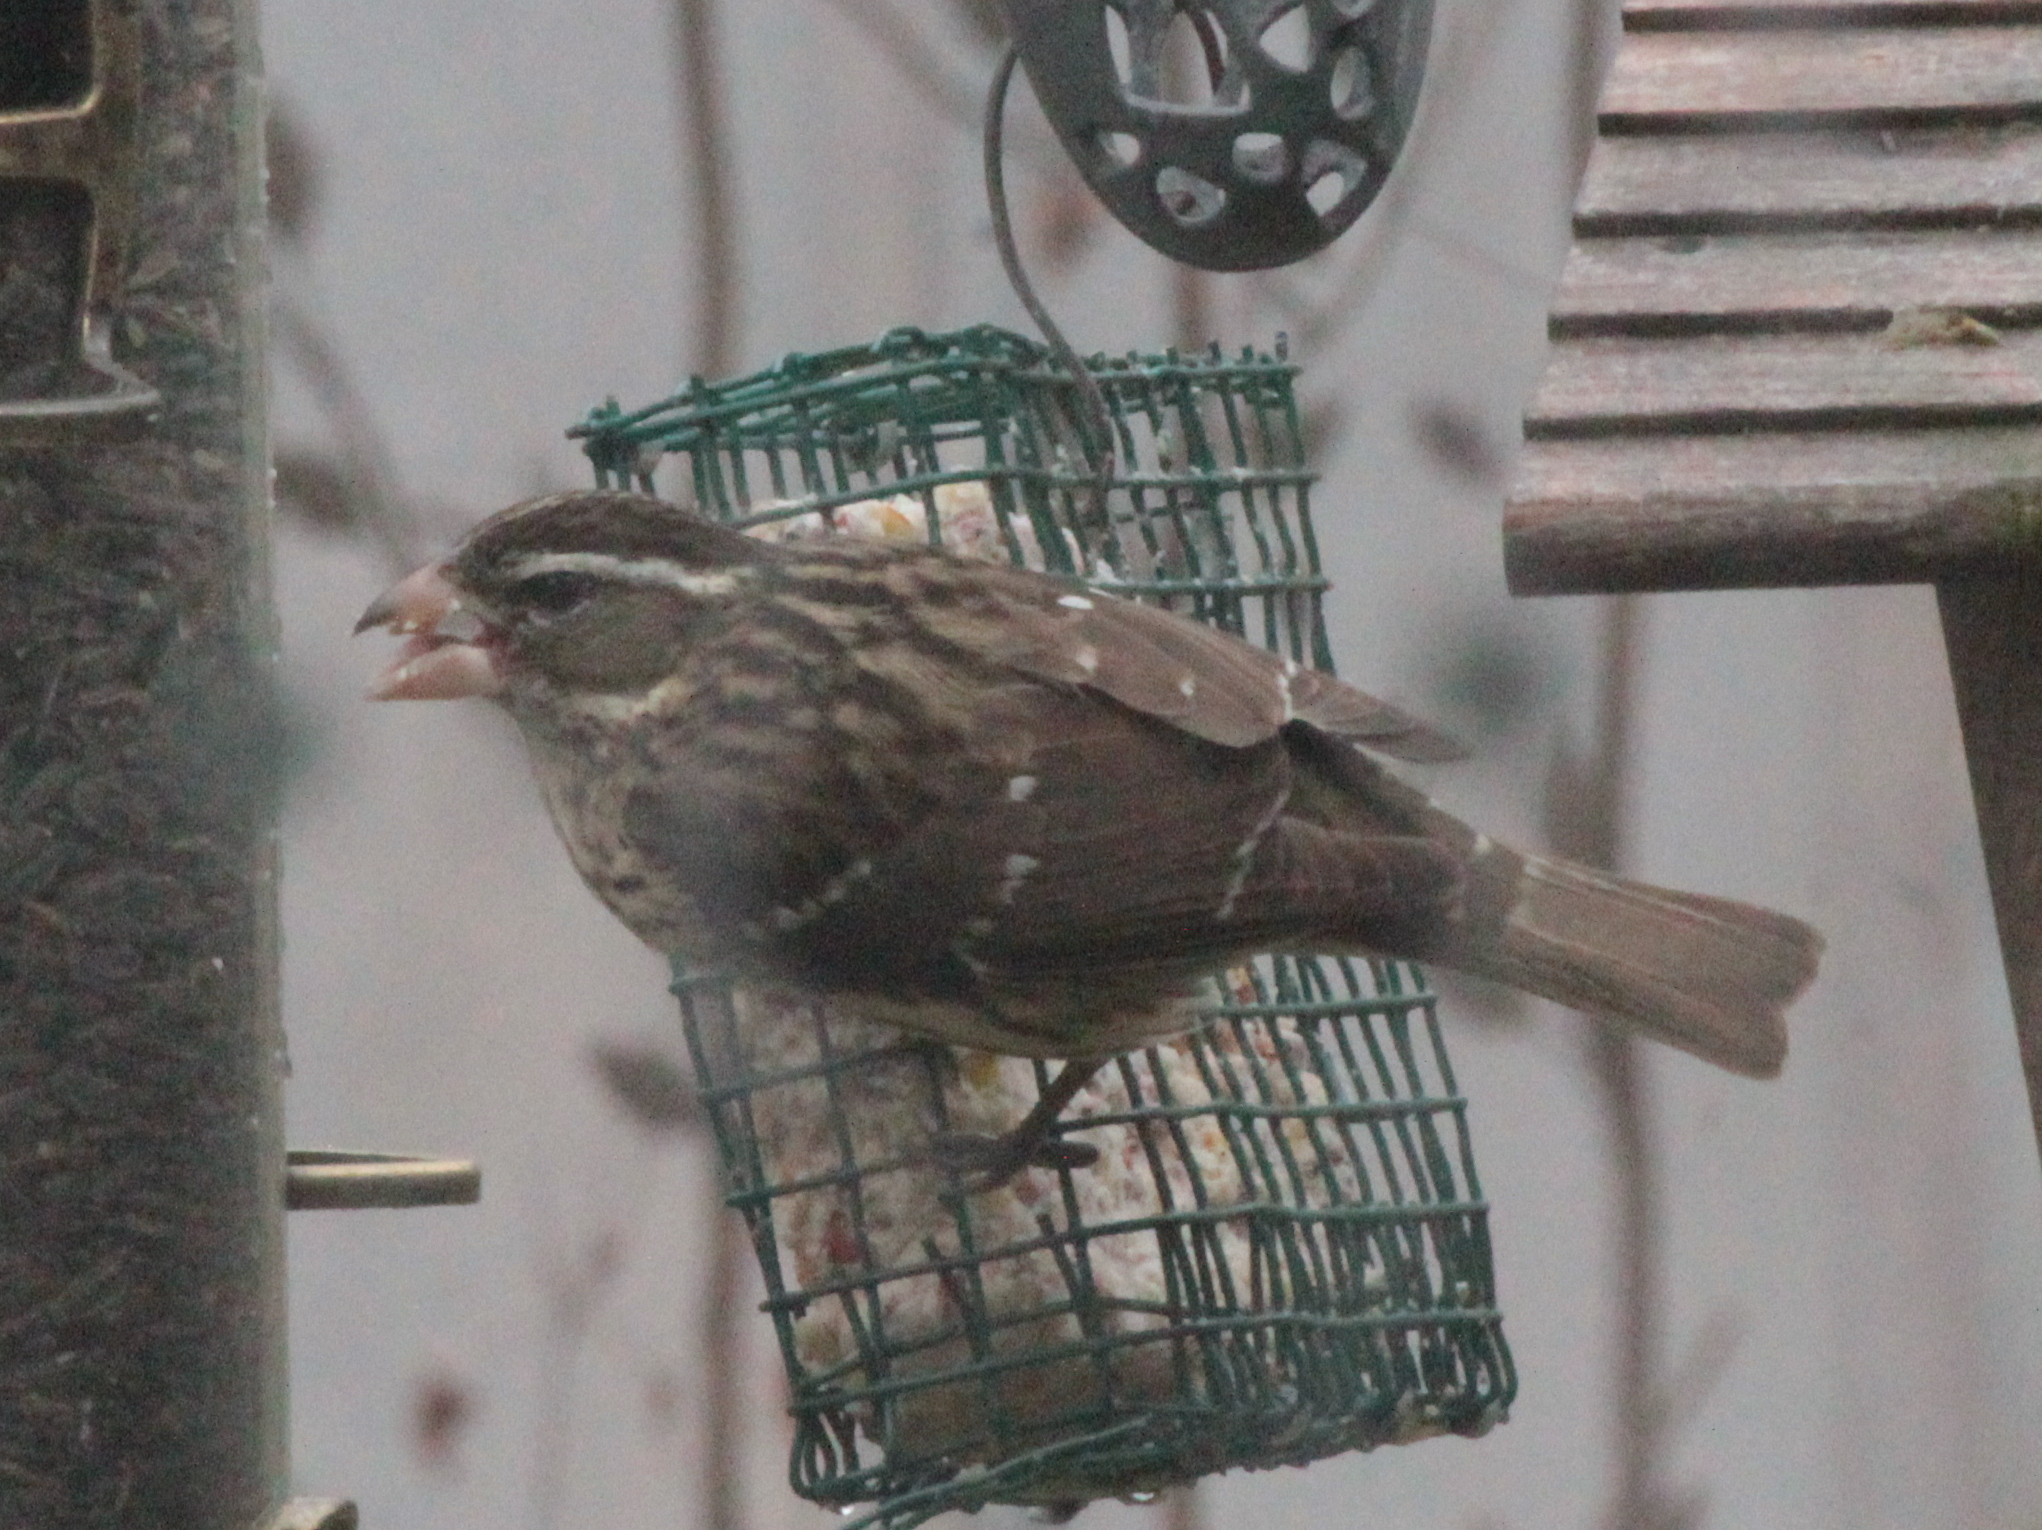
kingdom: Animalia
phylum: Chordata
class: Aves
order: Passeriformes
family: Cardinalidae
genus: Pheucticus
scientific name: Pheucticus ludovicianus
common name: Rose-breasted grosbeak
